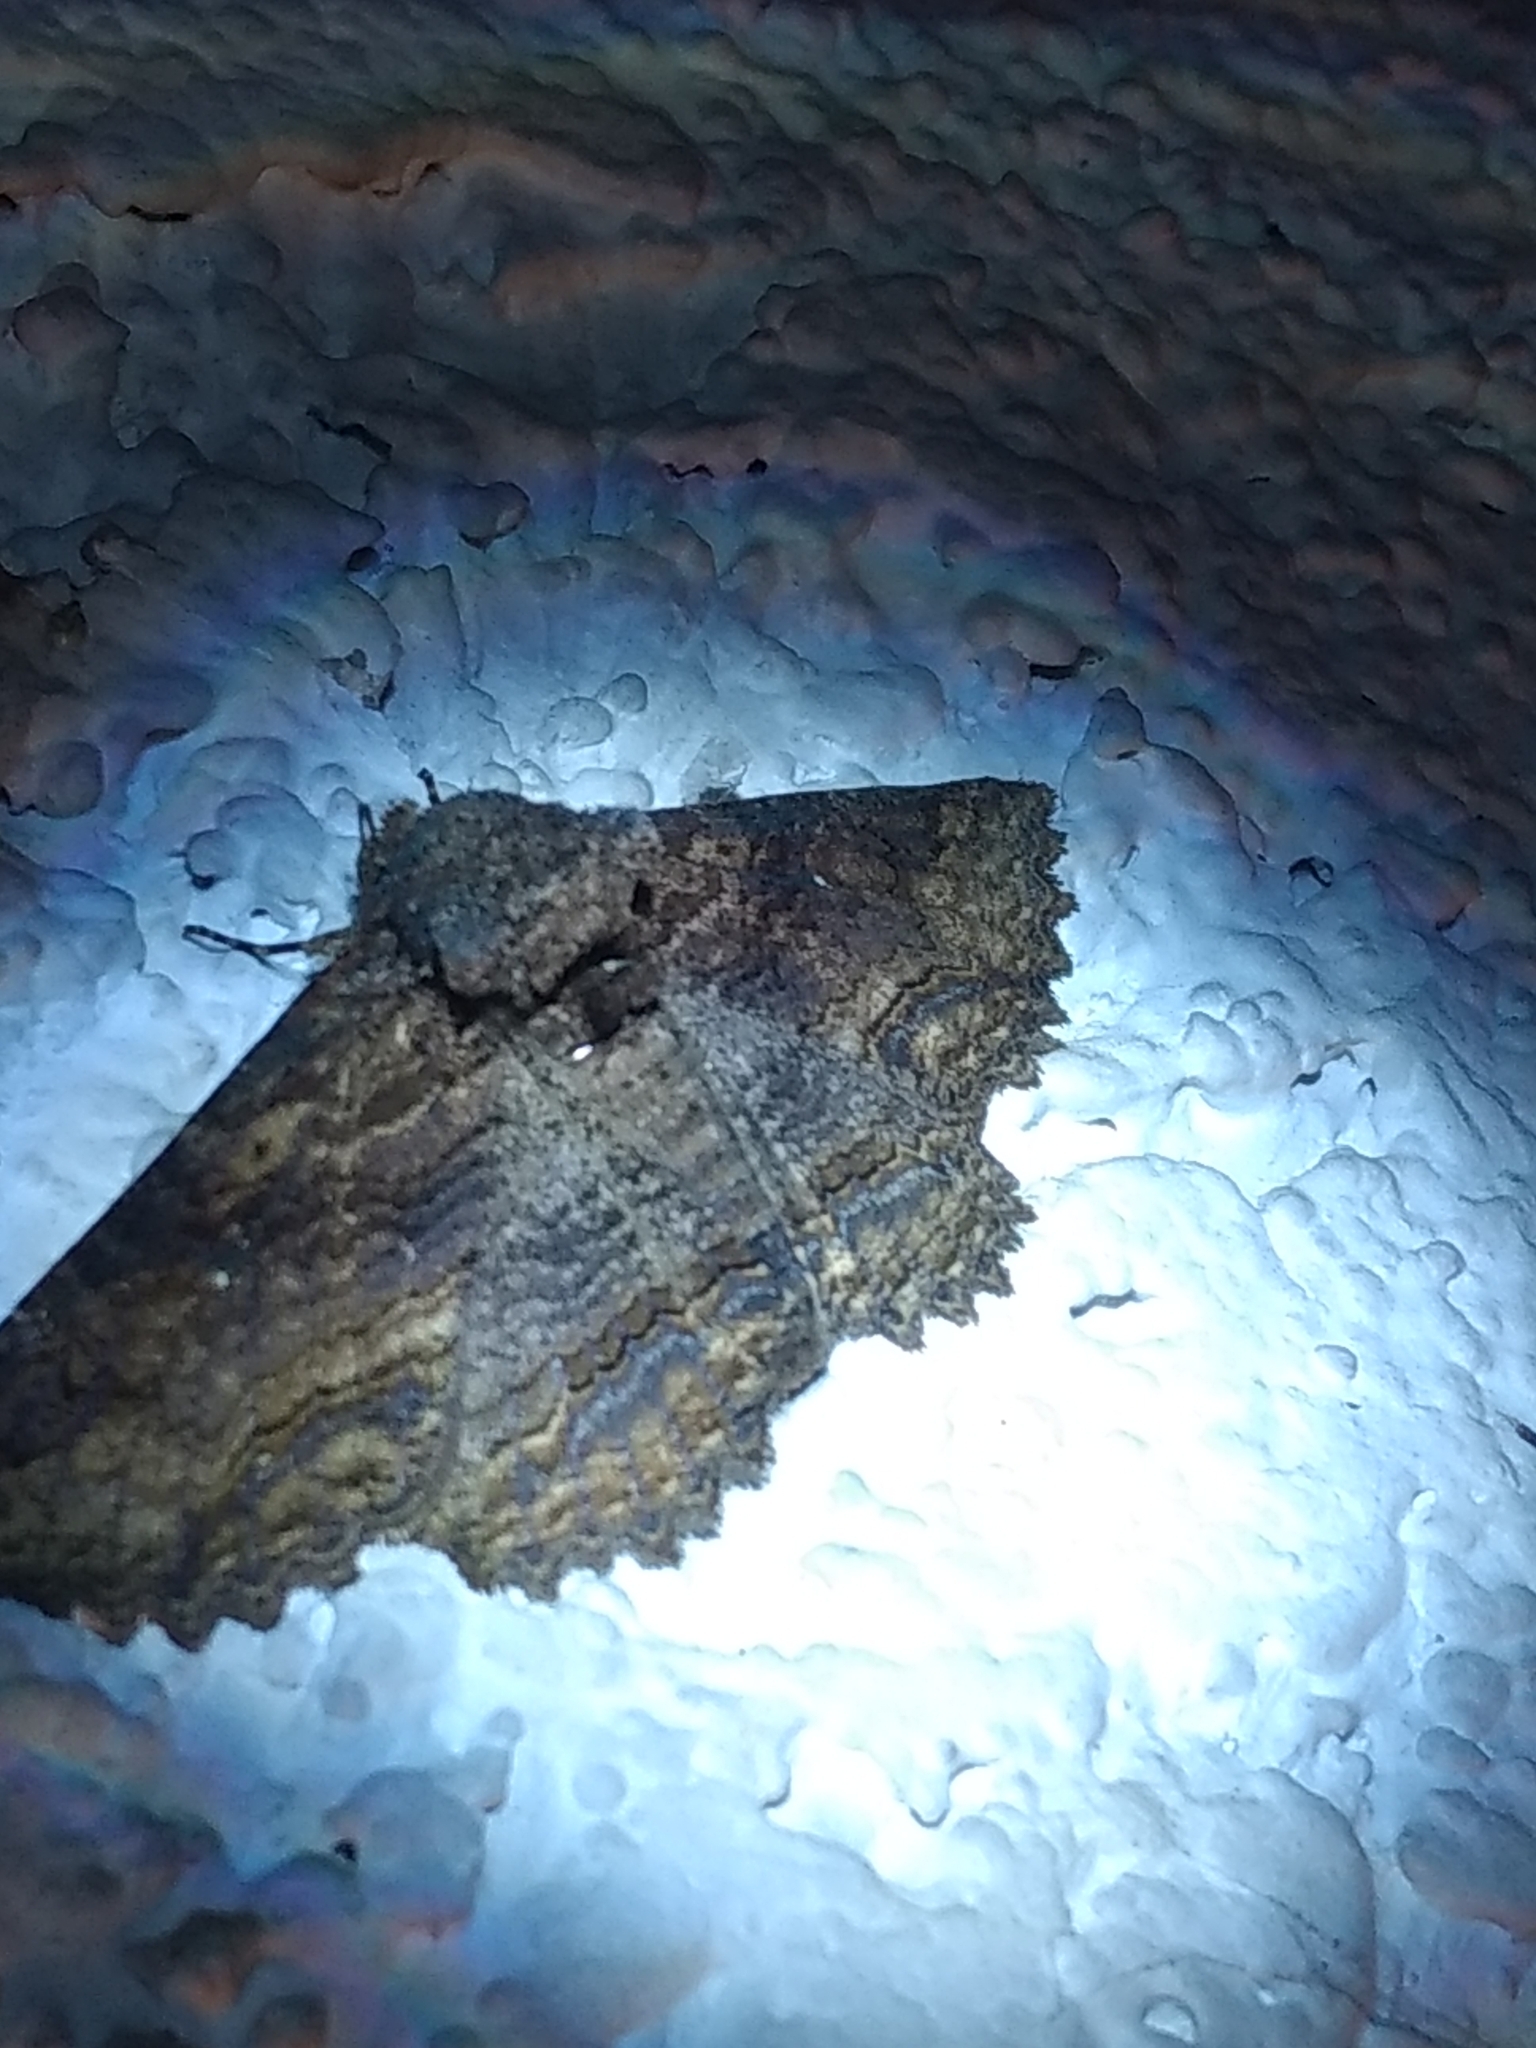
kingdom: Animalia
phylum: Arthropoda
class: Insecta
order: Lepidoptera
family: Erebidae
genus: Zale
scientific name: Zale lunata
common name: Lunate zale moth
